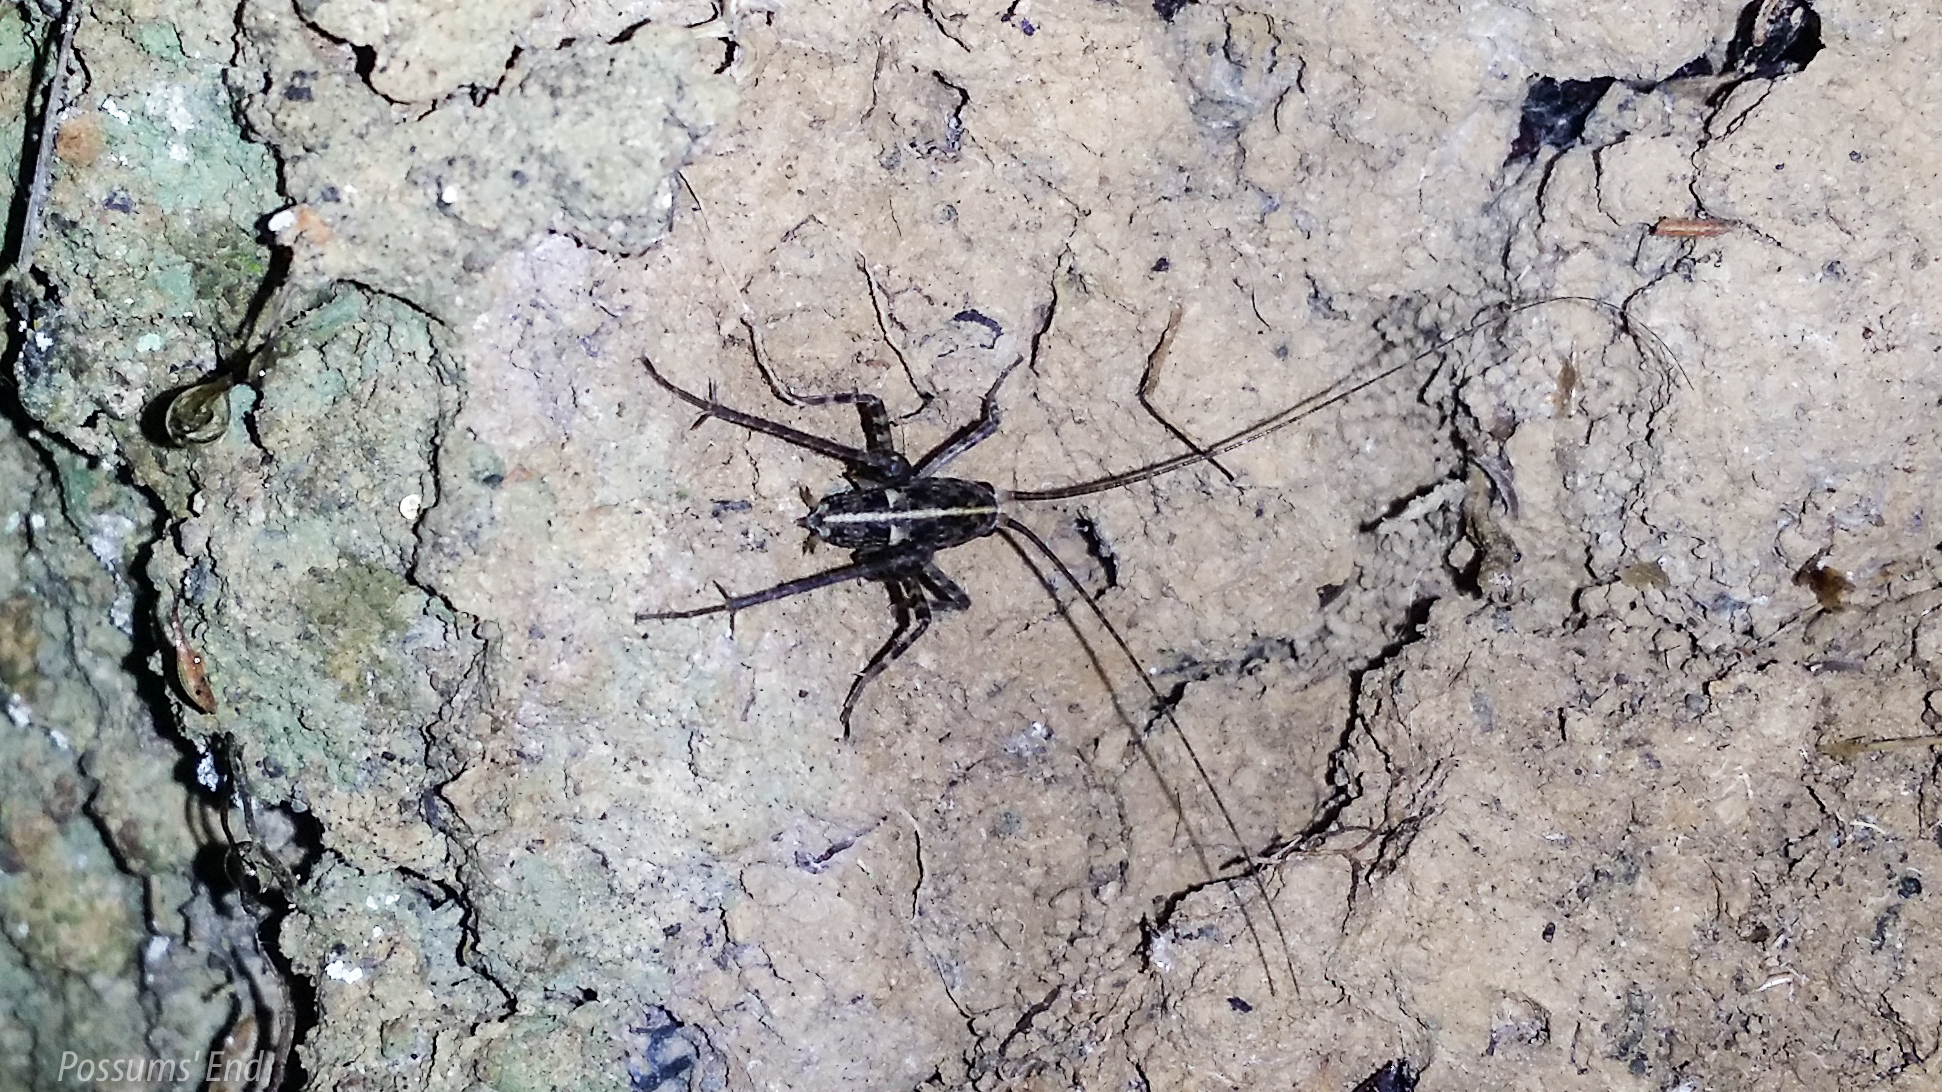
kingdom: Animalia
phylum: Arthropoda
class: Insecta
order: Orthoptera
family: Rhaphidophoridae
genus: Pleioplectron
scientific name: Pleioplectron simplex
